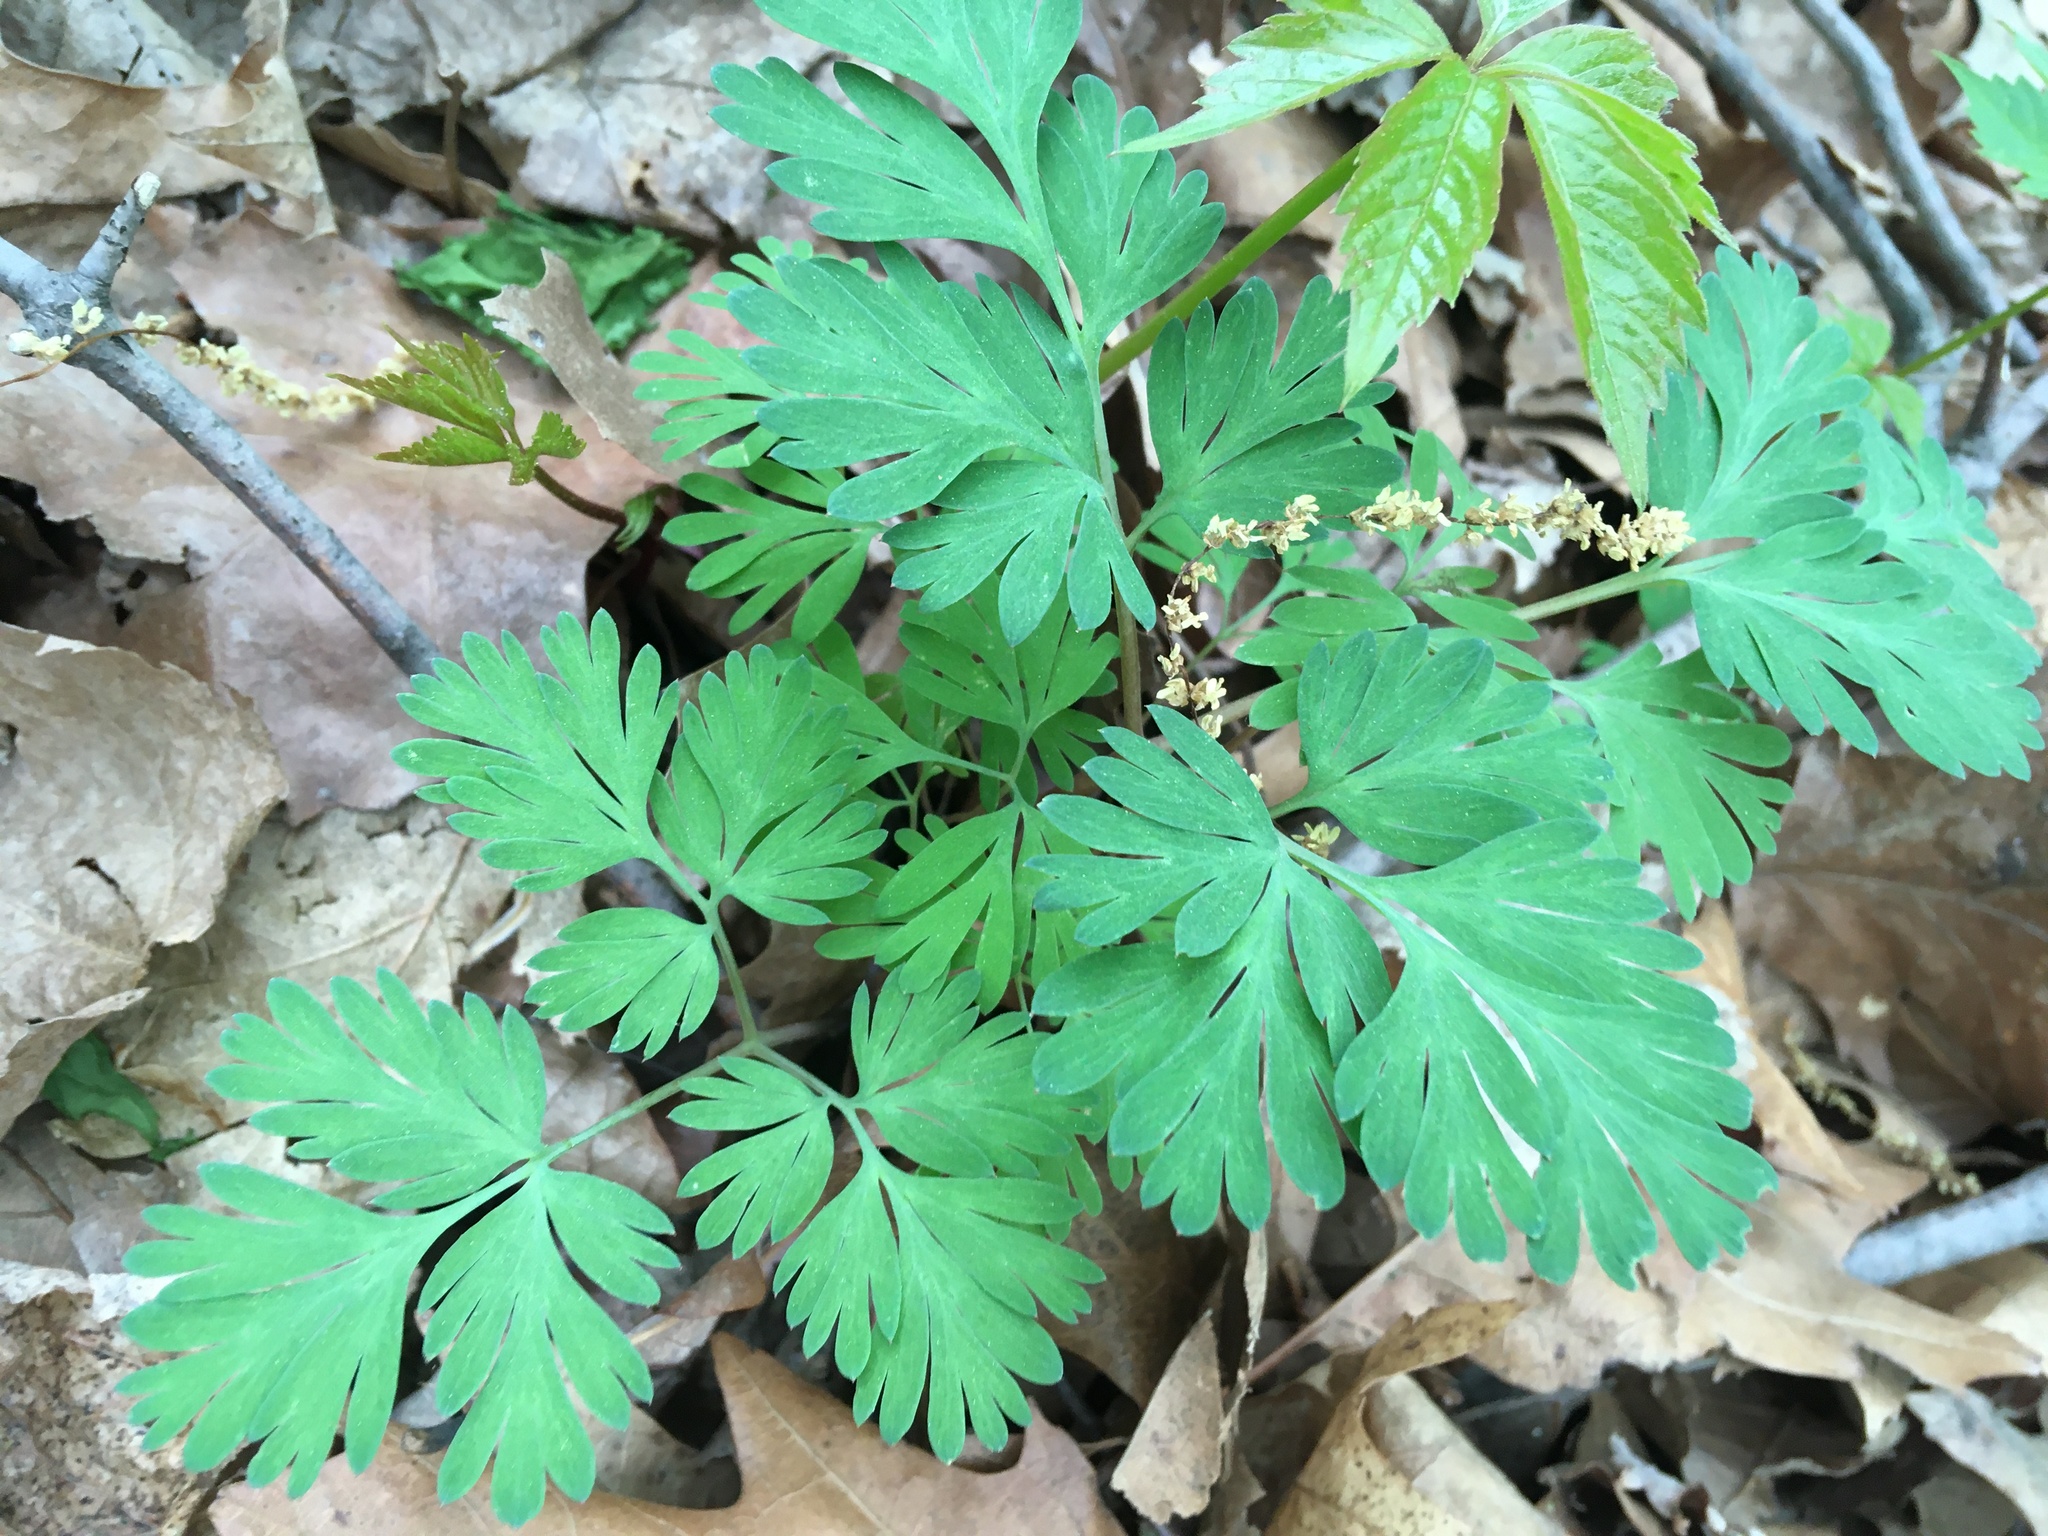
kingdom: Plantae
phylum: Tracheophyta
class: Magnoliopsida
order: Ranunculales
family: Papaveraceae
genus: Dicentra
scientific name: Dicentra cucullaria
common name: Dutchman's breeches
